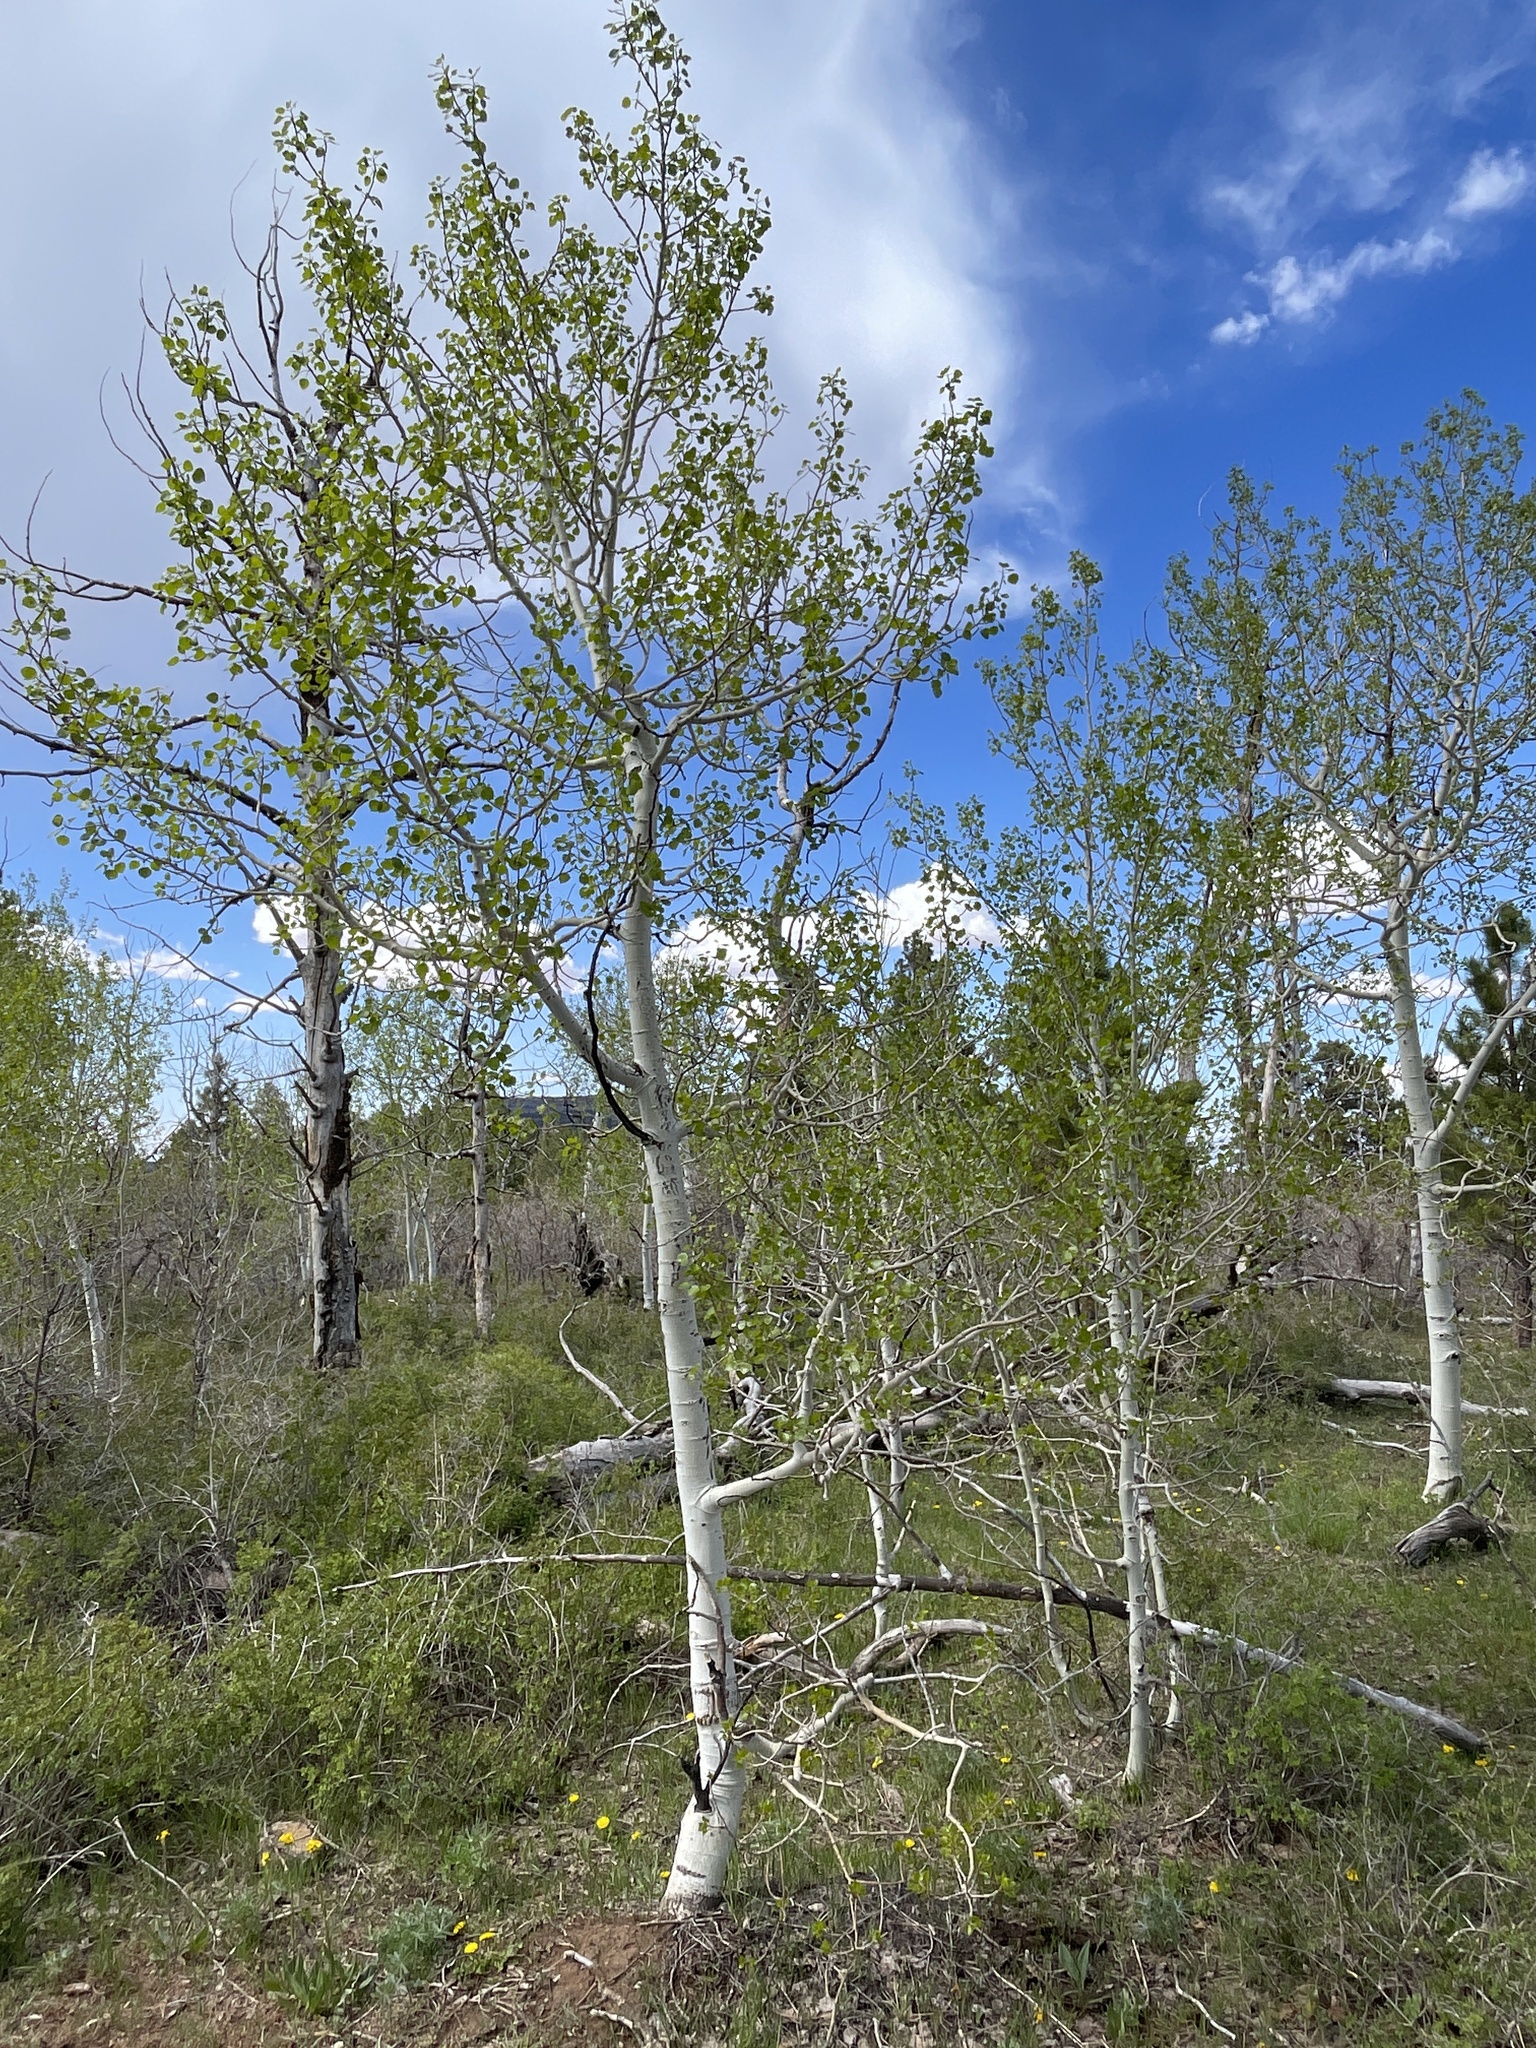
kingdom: Plantae
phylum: Tracheophyta
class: Magnoliopsida
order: Malpighiales
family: Salicaceae
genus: Populus
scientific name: Populus tremuloides
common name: Quaking aspen
